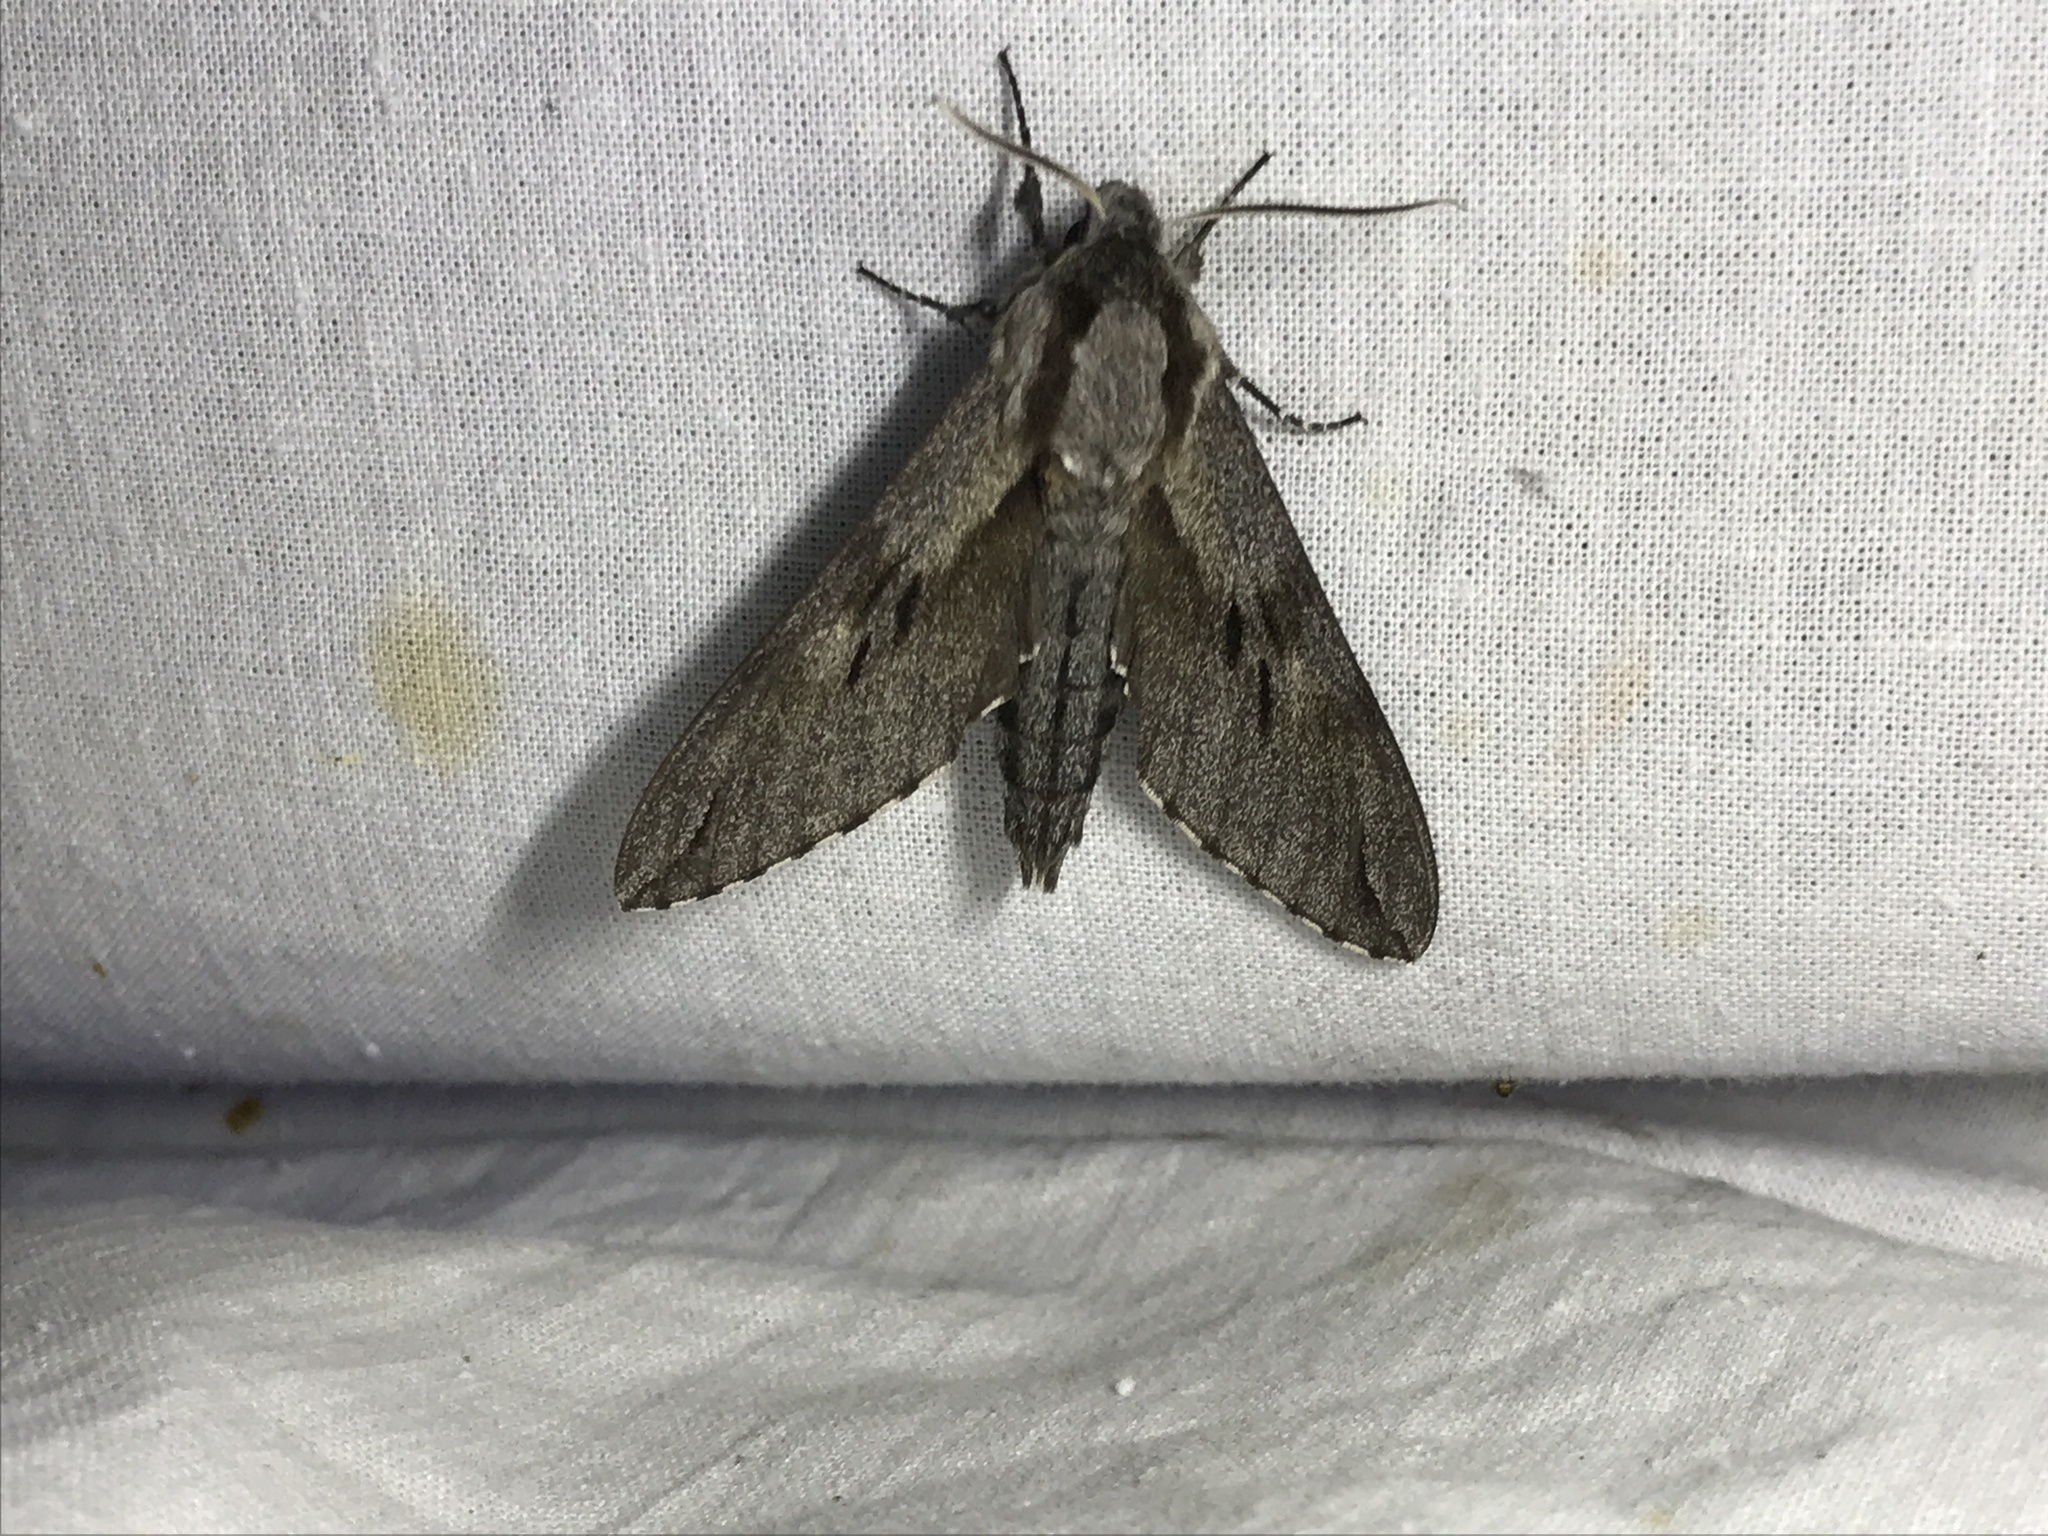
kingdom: Animalia
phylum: Arthropoda
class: Insecta
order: Lepidoptera
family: Sphingidae
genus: Sphinx
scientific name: Sphinx pinastri
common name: Pine hawk-moth
